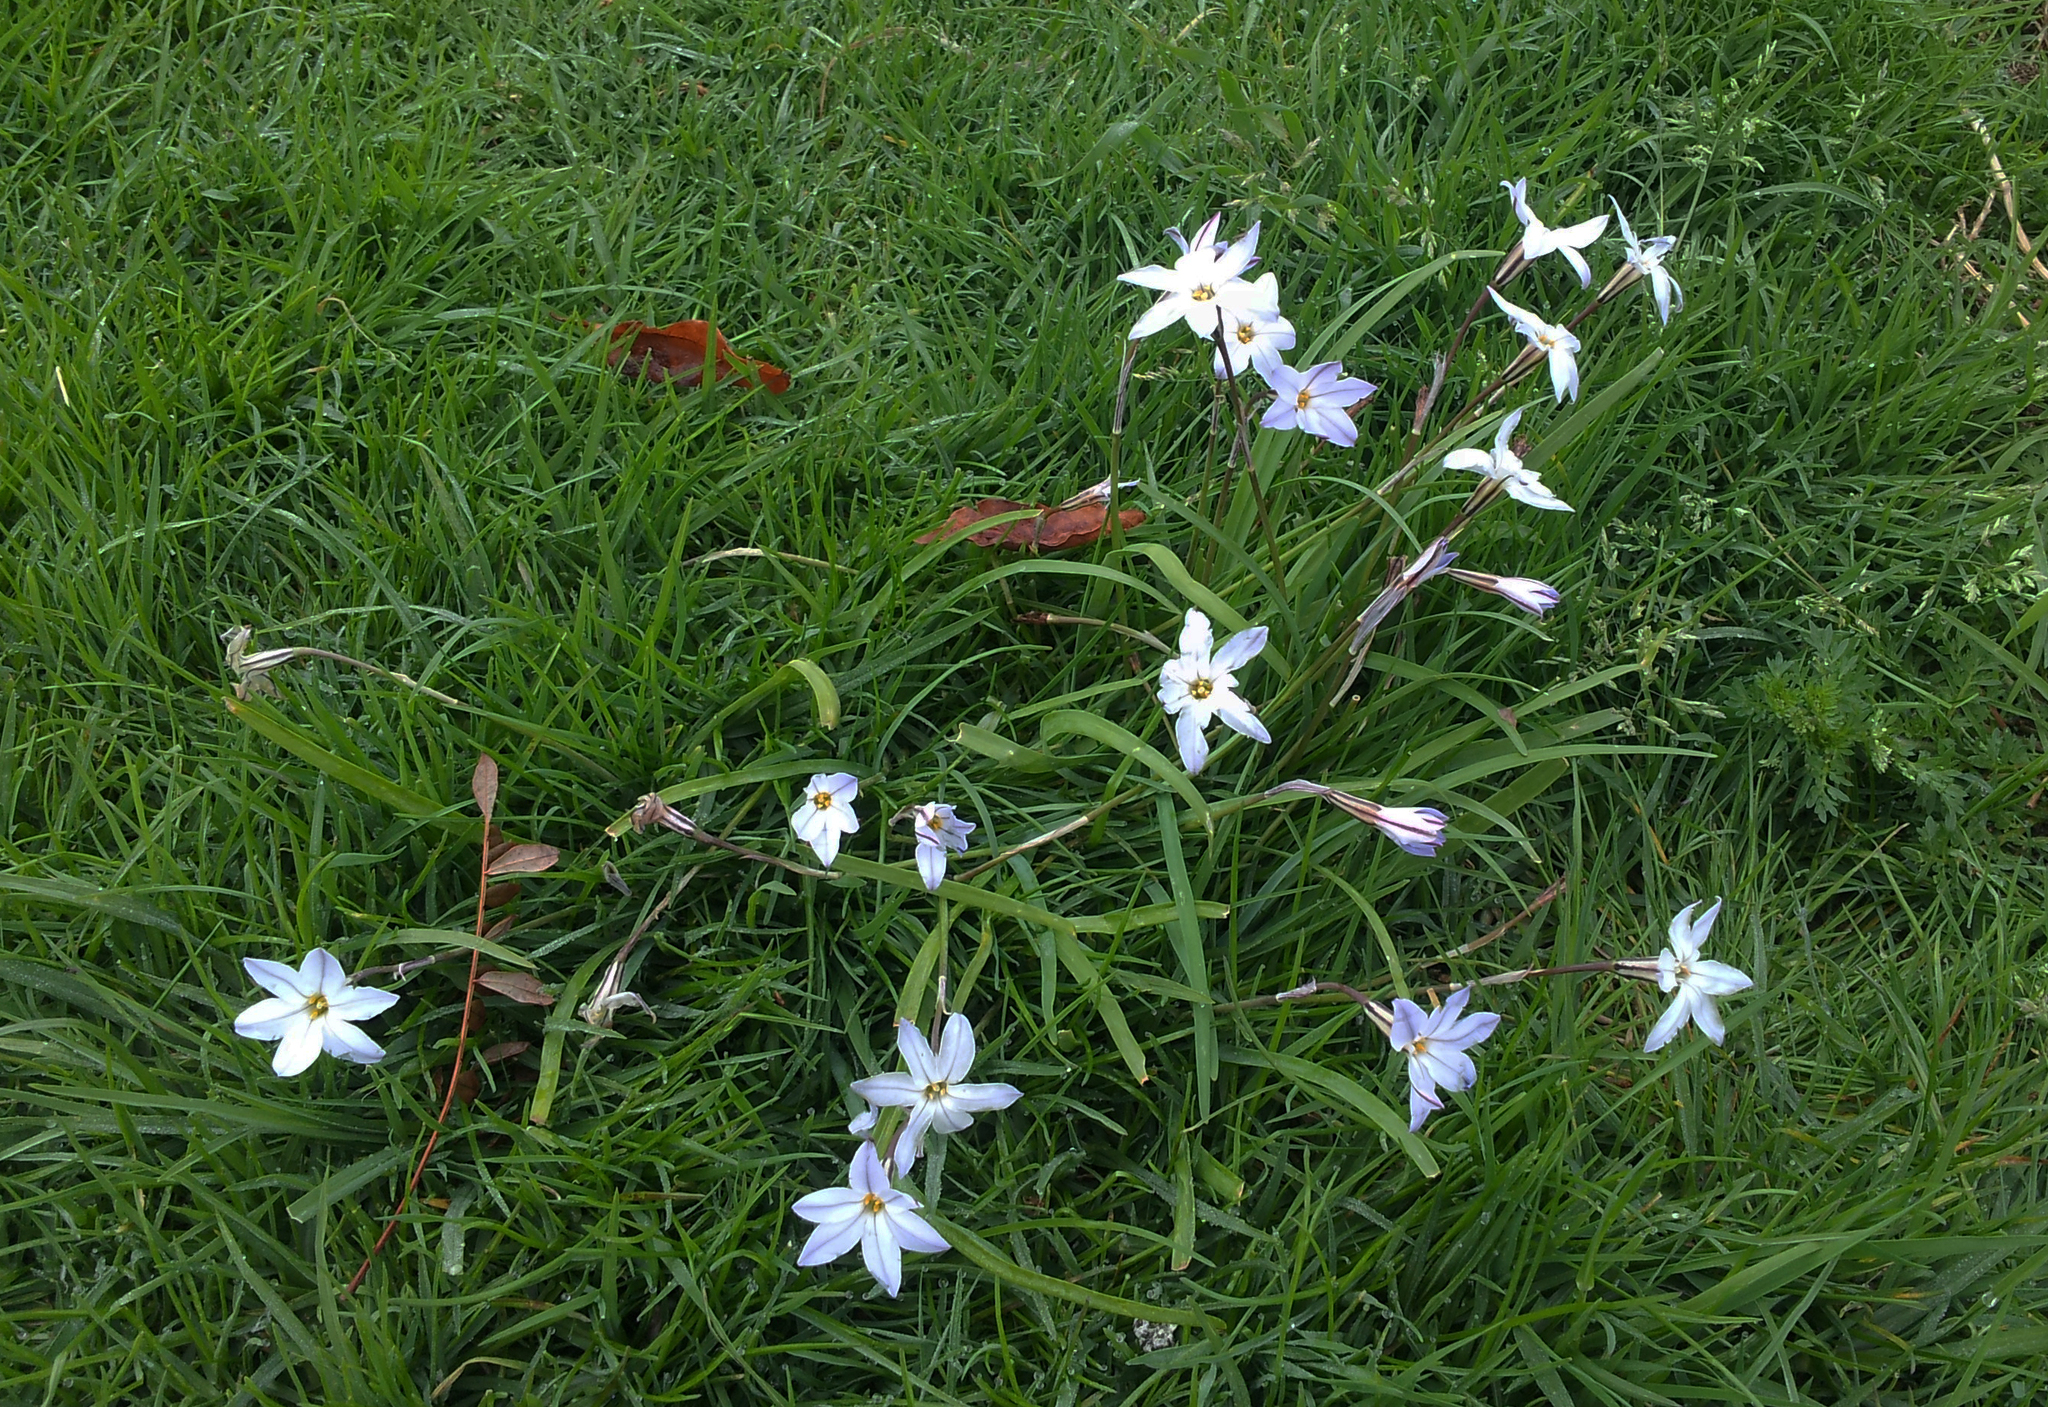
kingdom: Plantae
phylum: Tracheophyta
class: Liliopsida
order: Asparagales
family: Amaryllidaceae
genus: Ipheion
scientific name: Ipheion uniflorum
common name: Spring starflower
